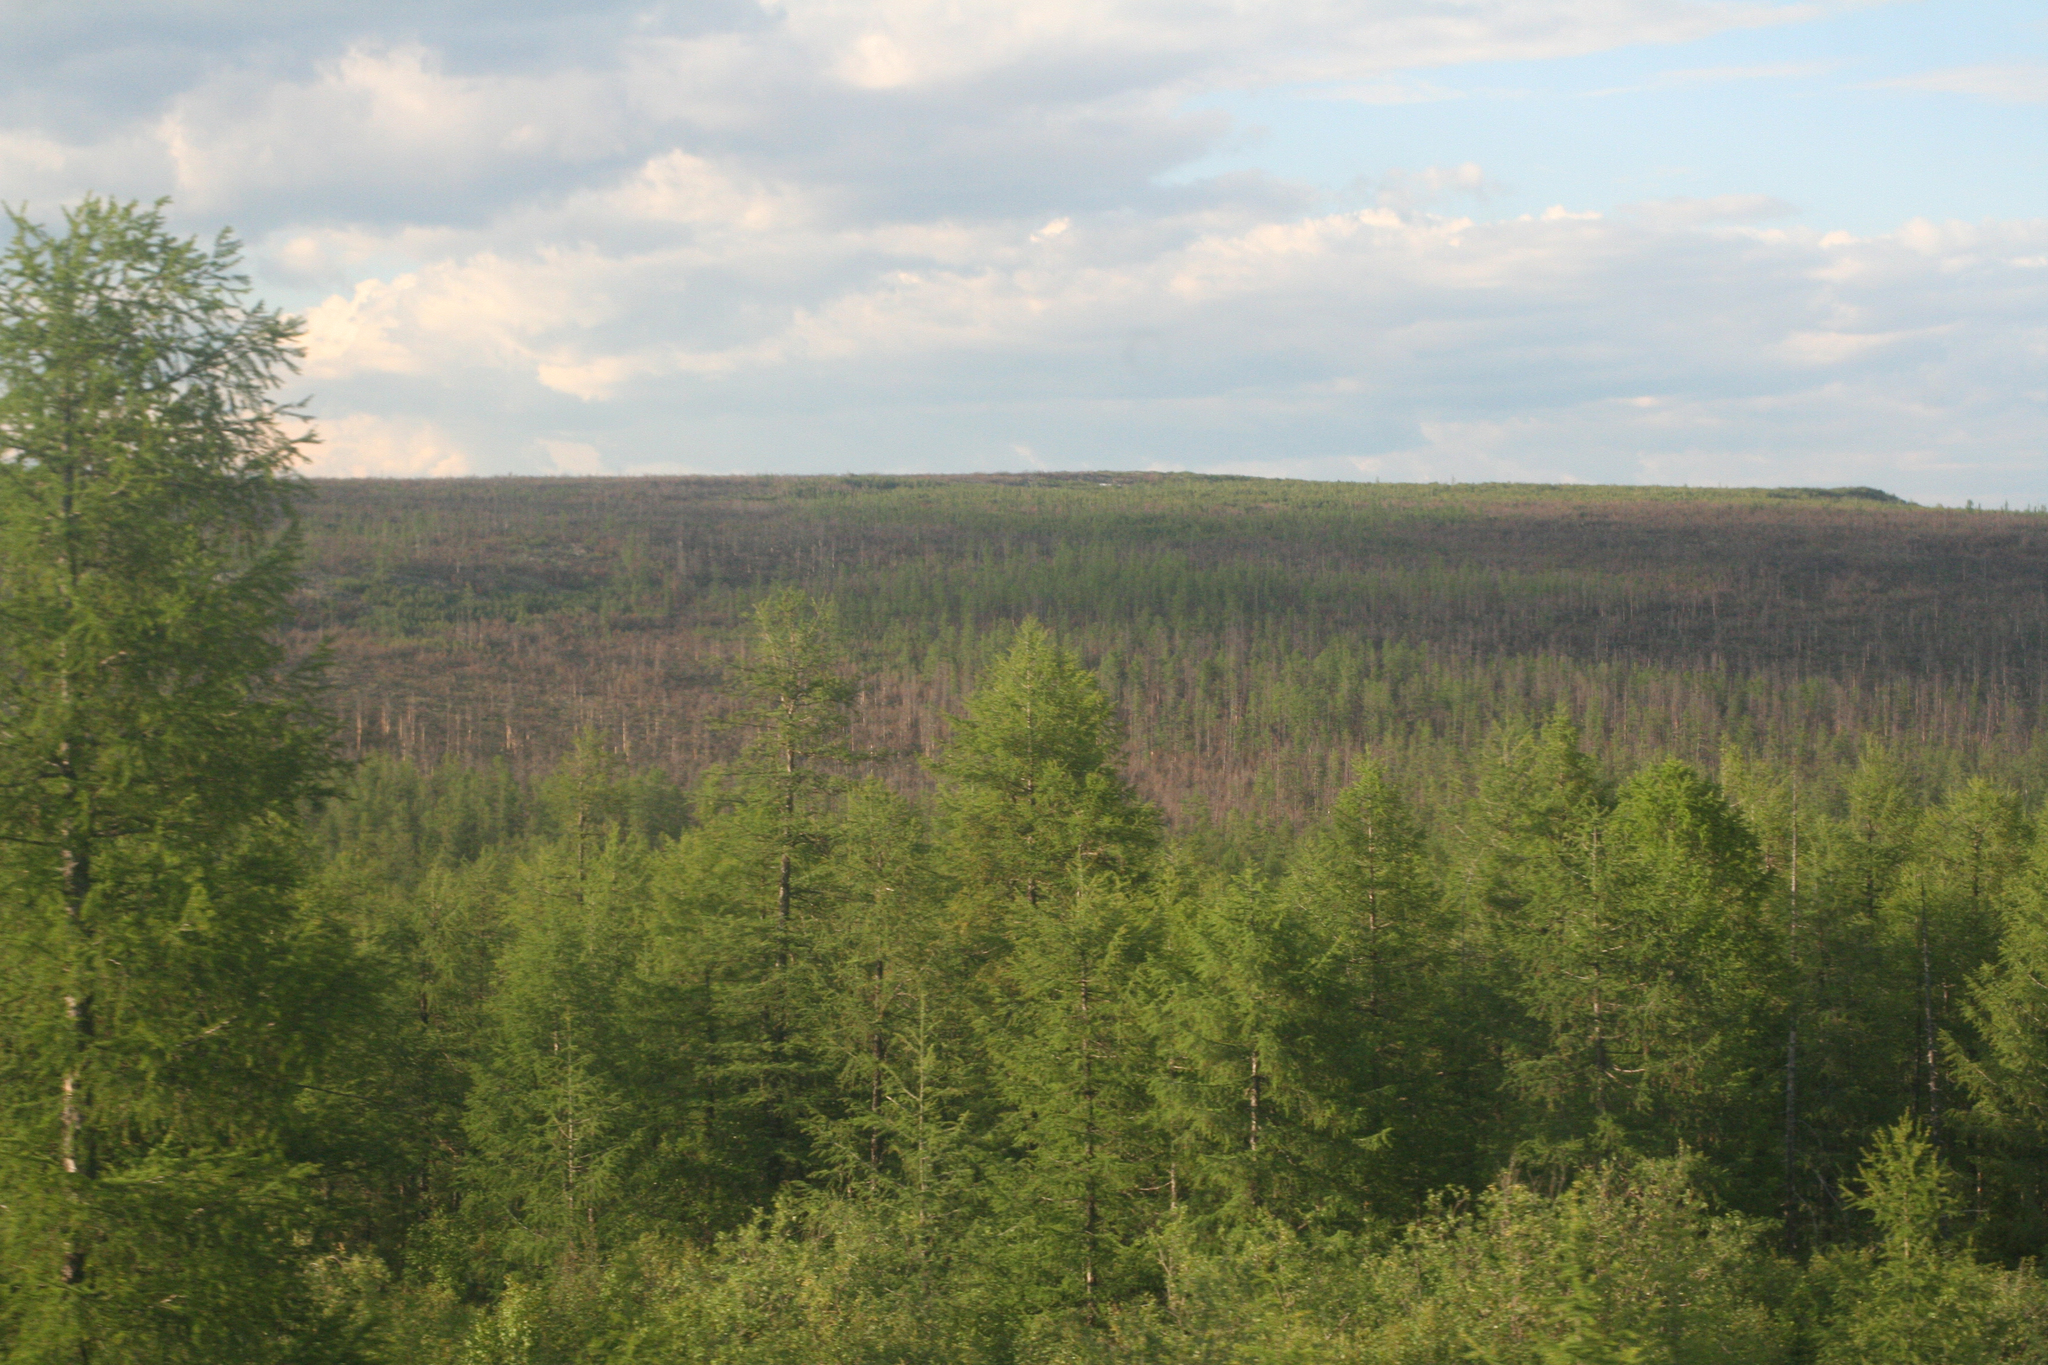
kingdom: Plantae
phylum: Tracheophyta
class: Pinopsida
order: Pinales
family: Pinaceae
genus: Larix
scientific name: Larix gmelinii
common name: Dahurian larch
